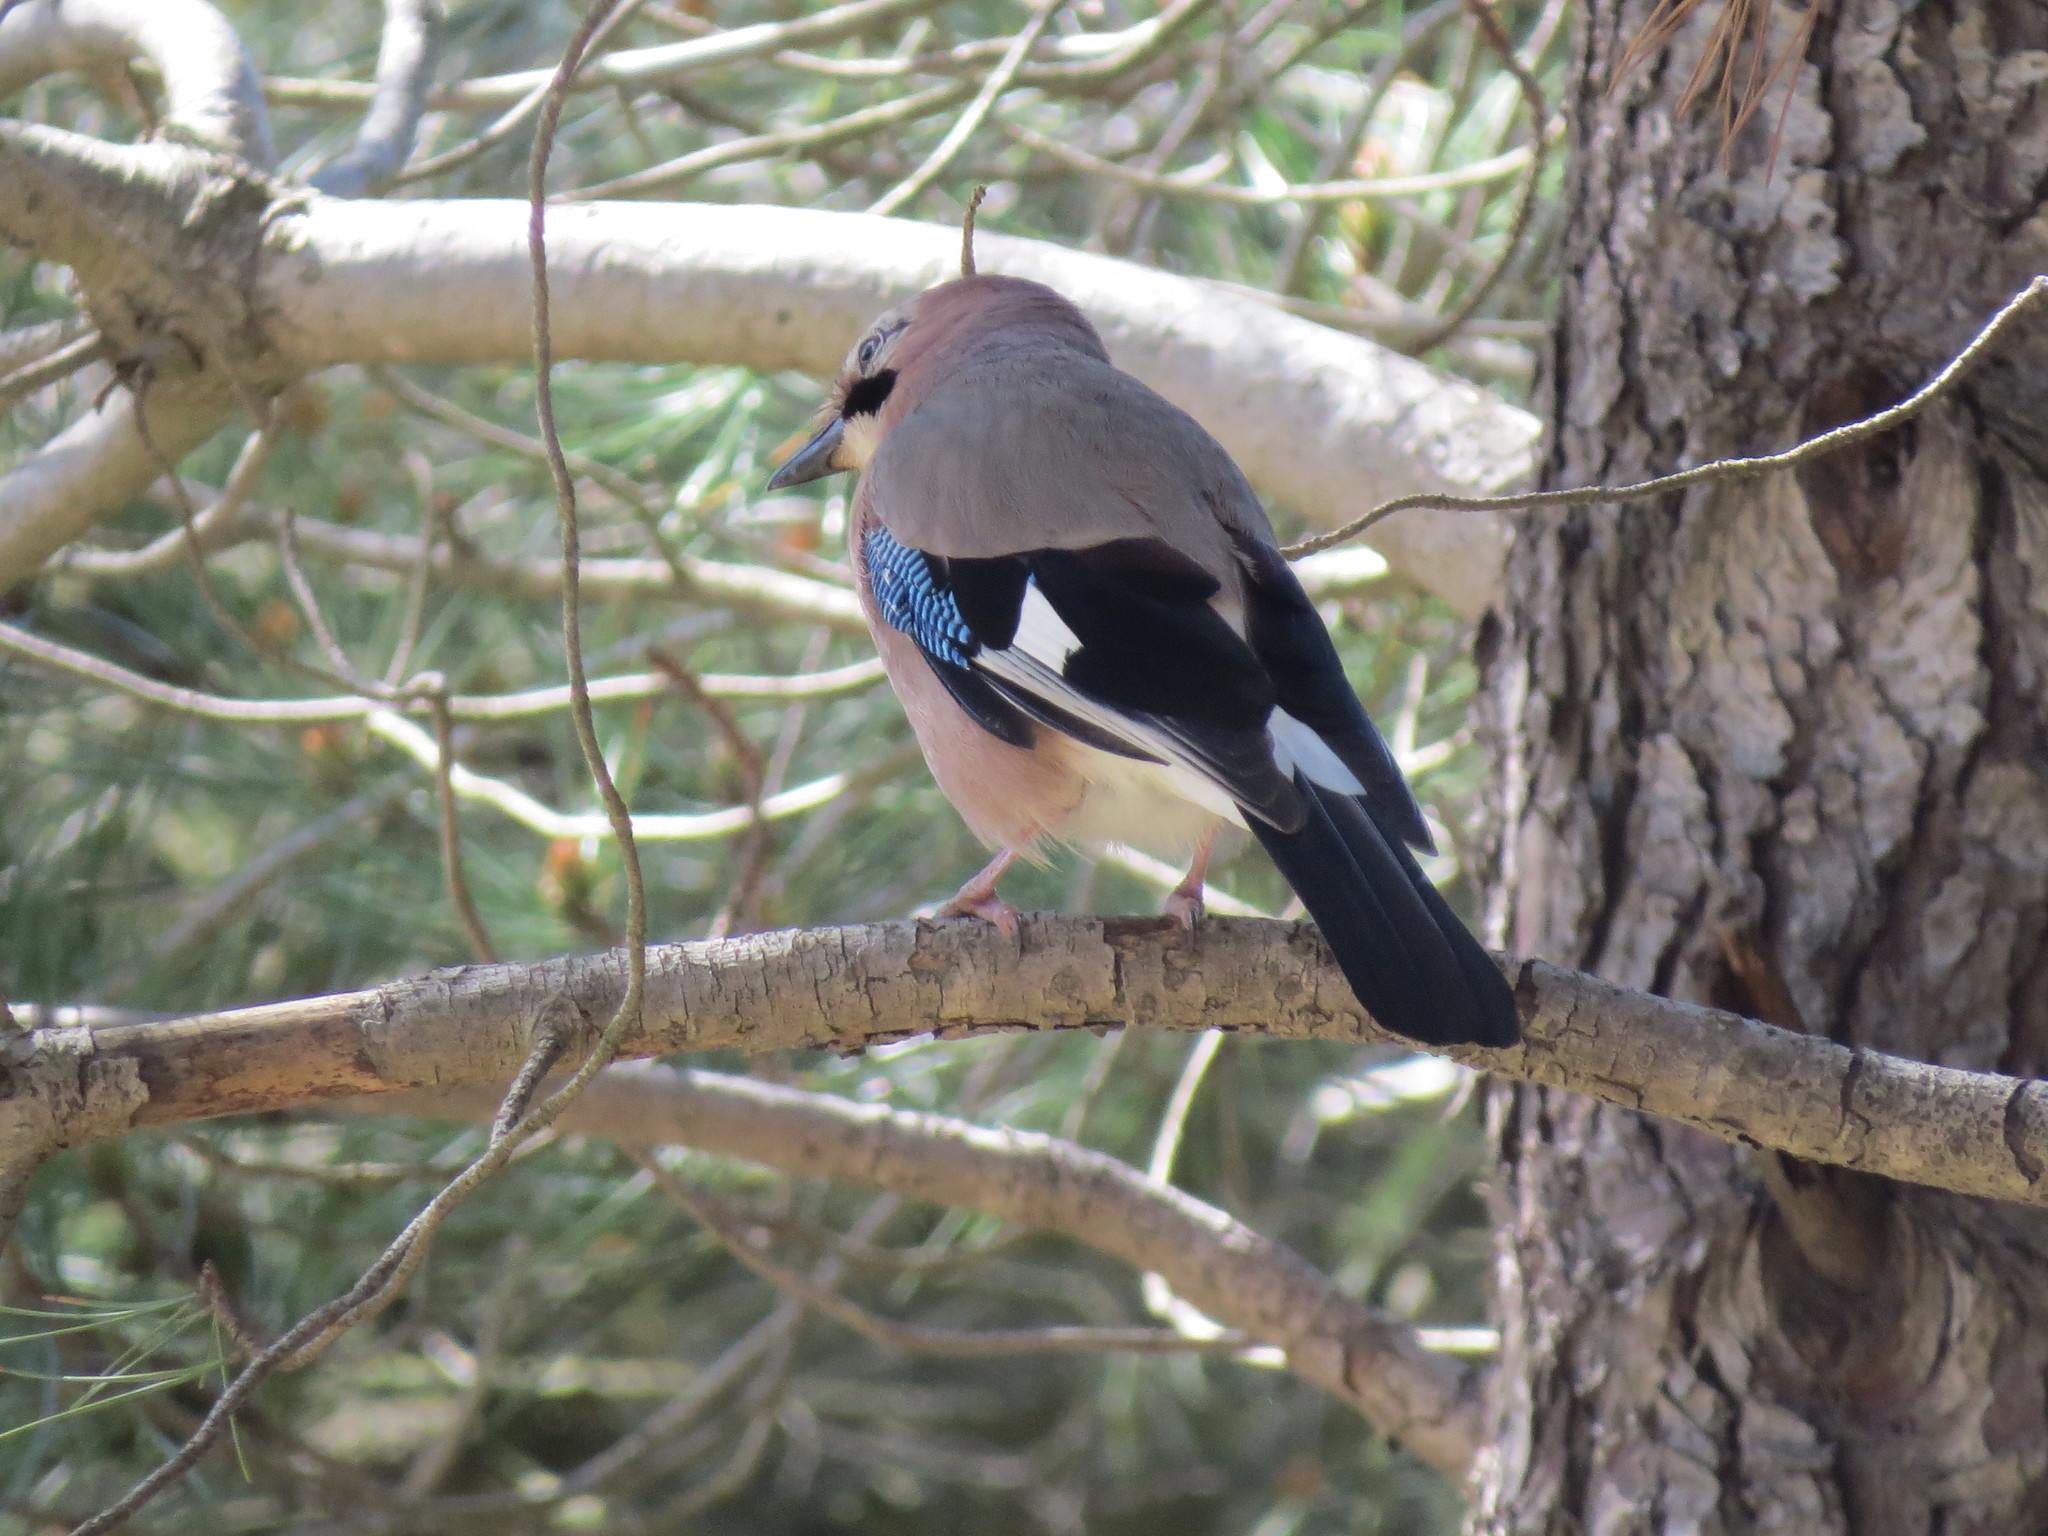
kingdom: Animalia
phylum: Chordata
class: Aves
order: Passeriformes
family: Corvidae
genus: Garrulus
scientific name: Garrulus glandarius
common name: Eurasian jay
